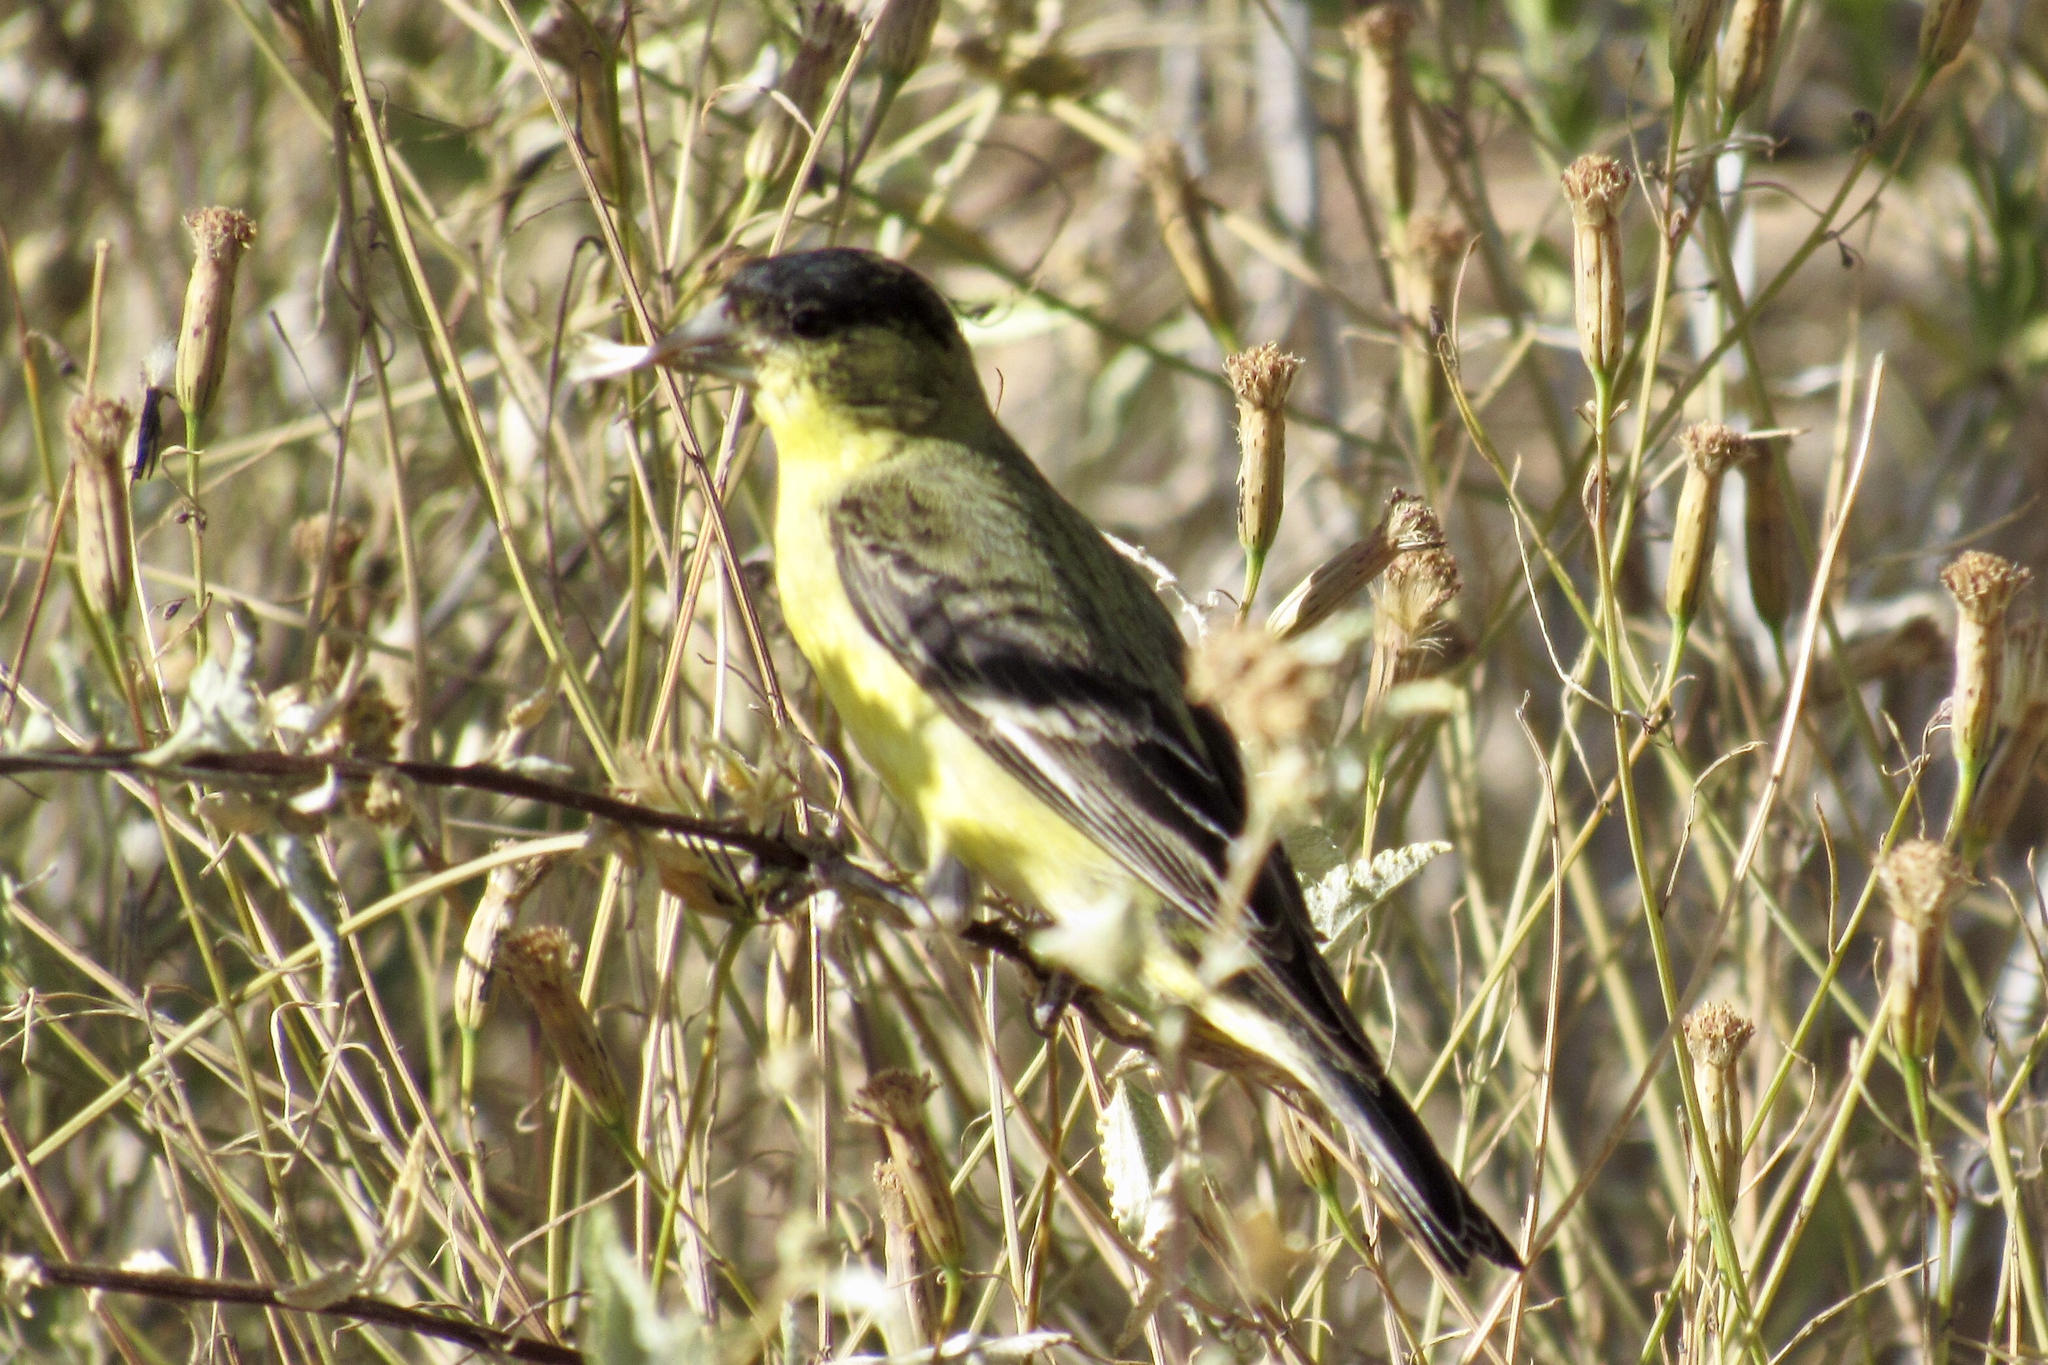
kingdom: Animalia
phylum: Chordata
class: Aves
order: Passeriformes
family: Fringillidae
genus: Spinus
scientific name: Spinus psaltria
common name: Lesser goldfinch
